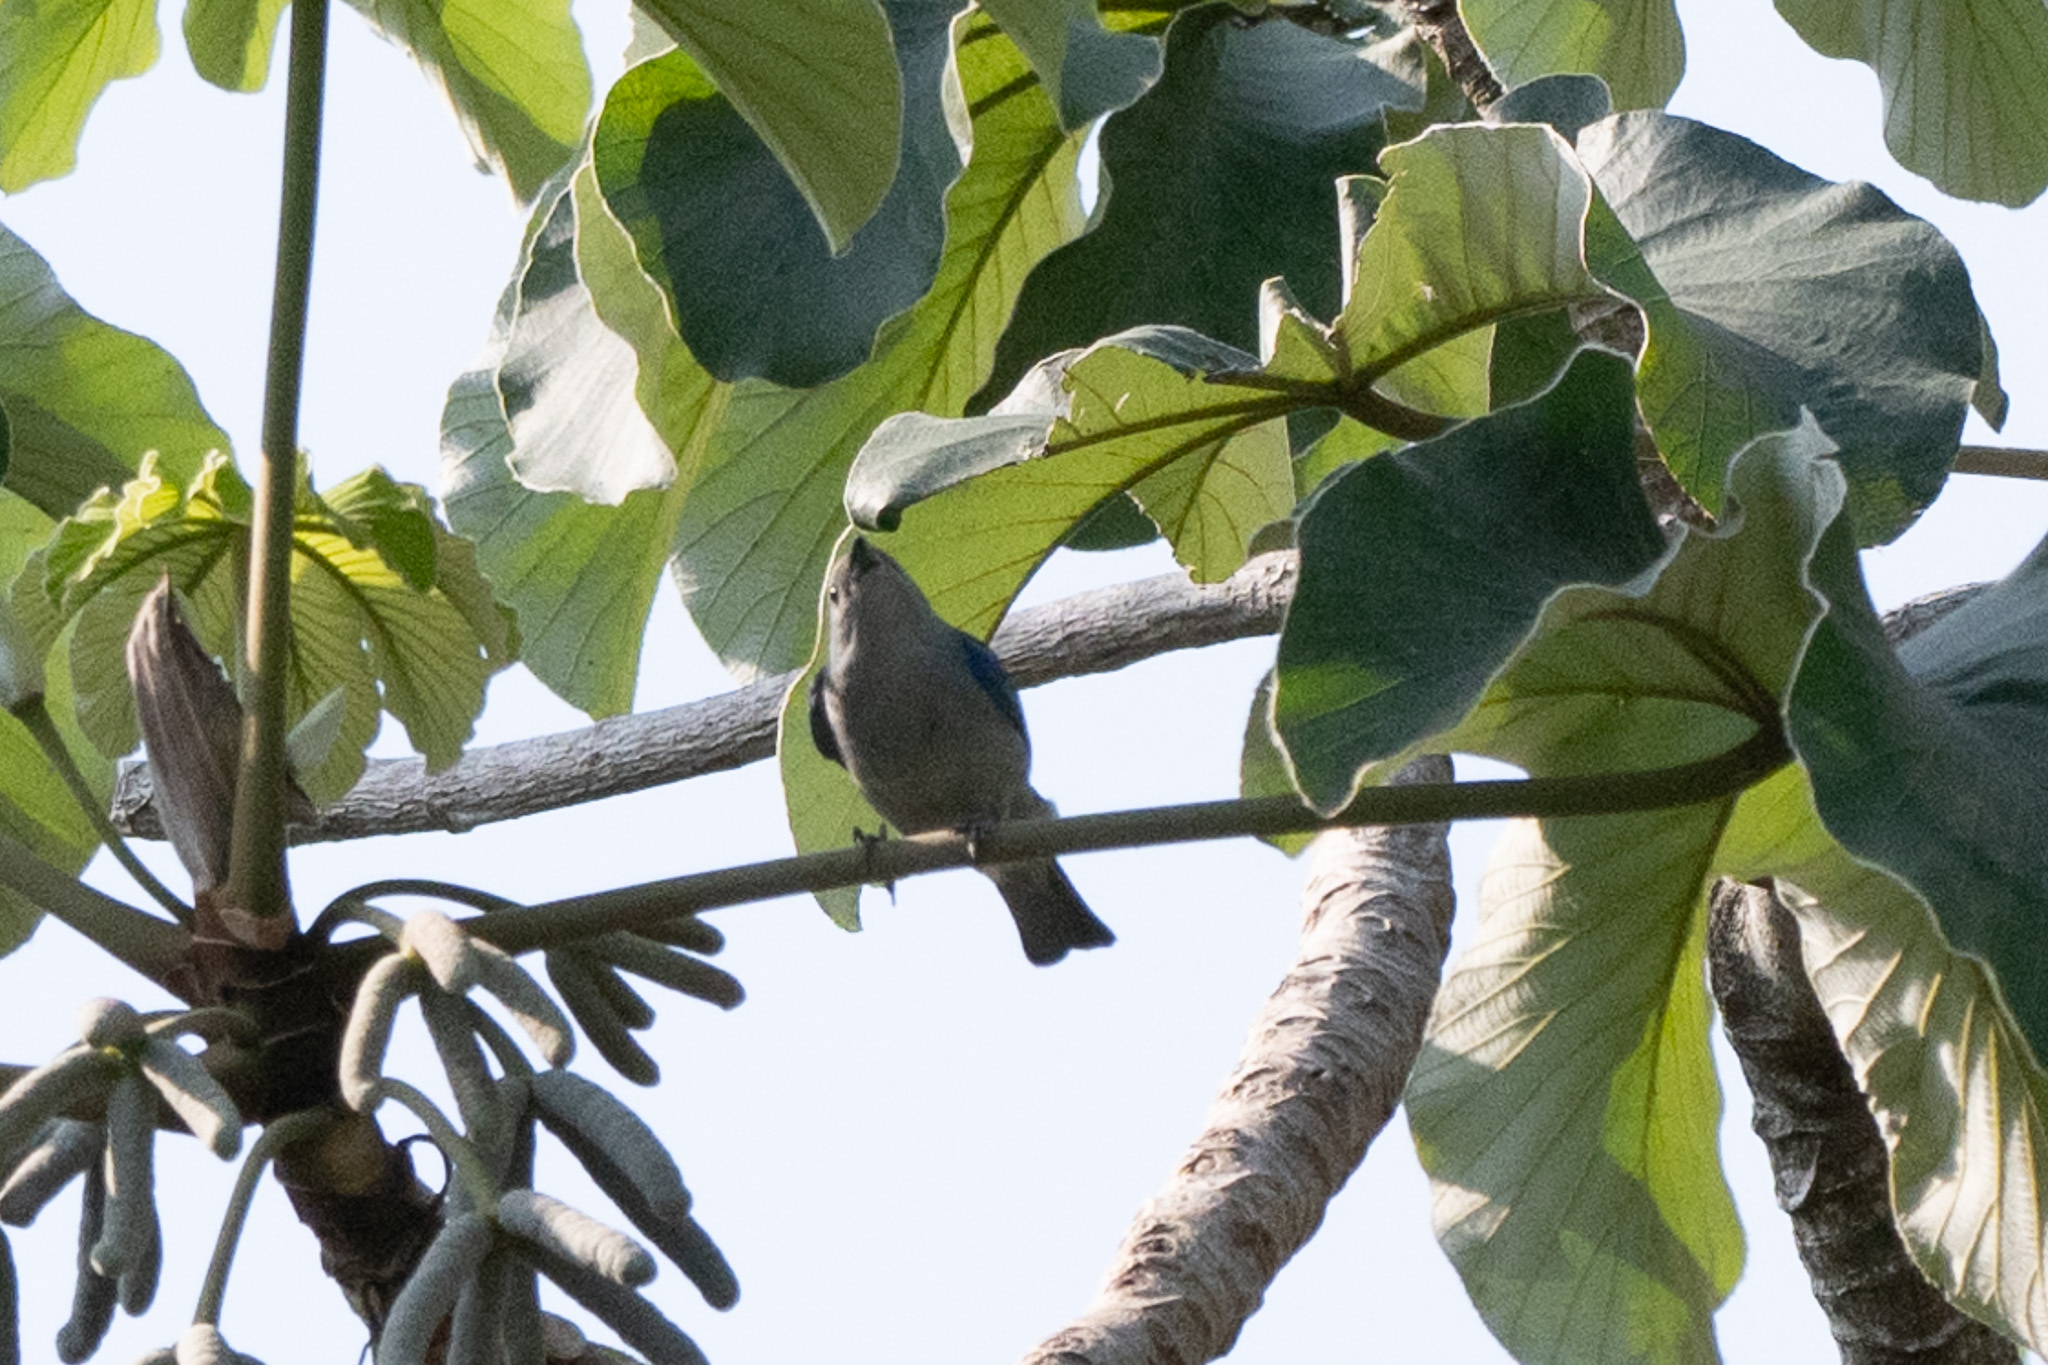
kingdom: Animalia
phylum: Chordata
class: Aves
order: Passeriformes
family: Thraupidae
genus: Thraupis
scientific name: Thraupis episcopus
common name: Blue-grey tanager
